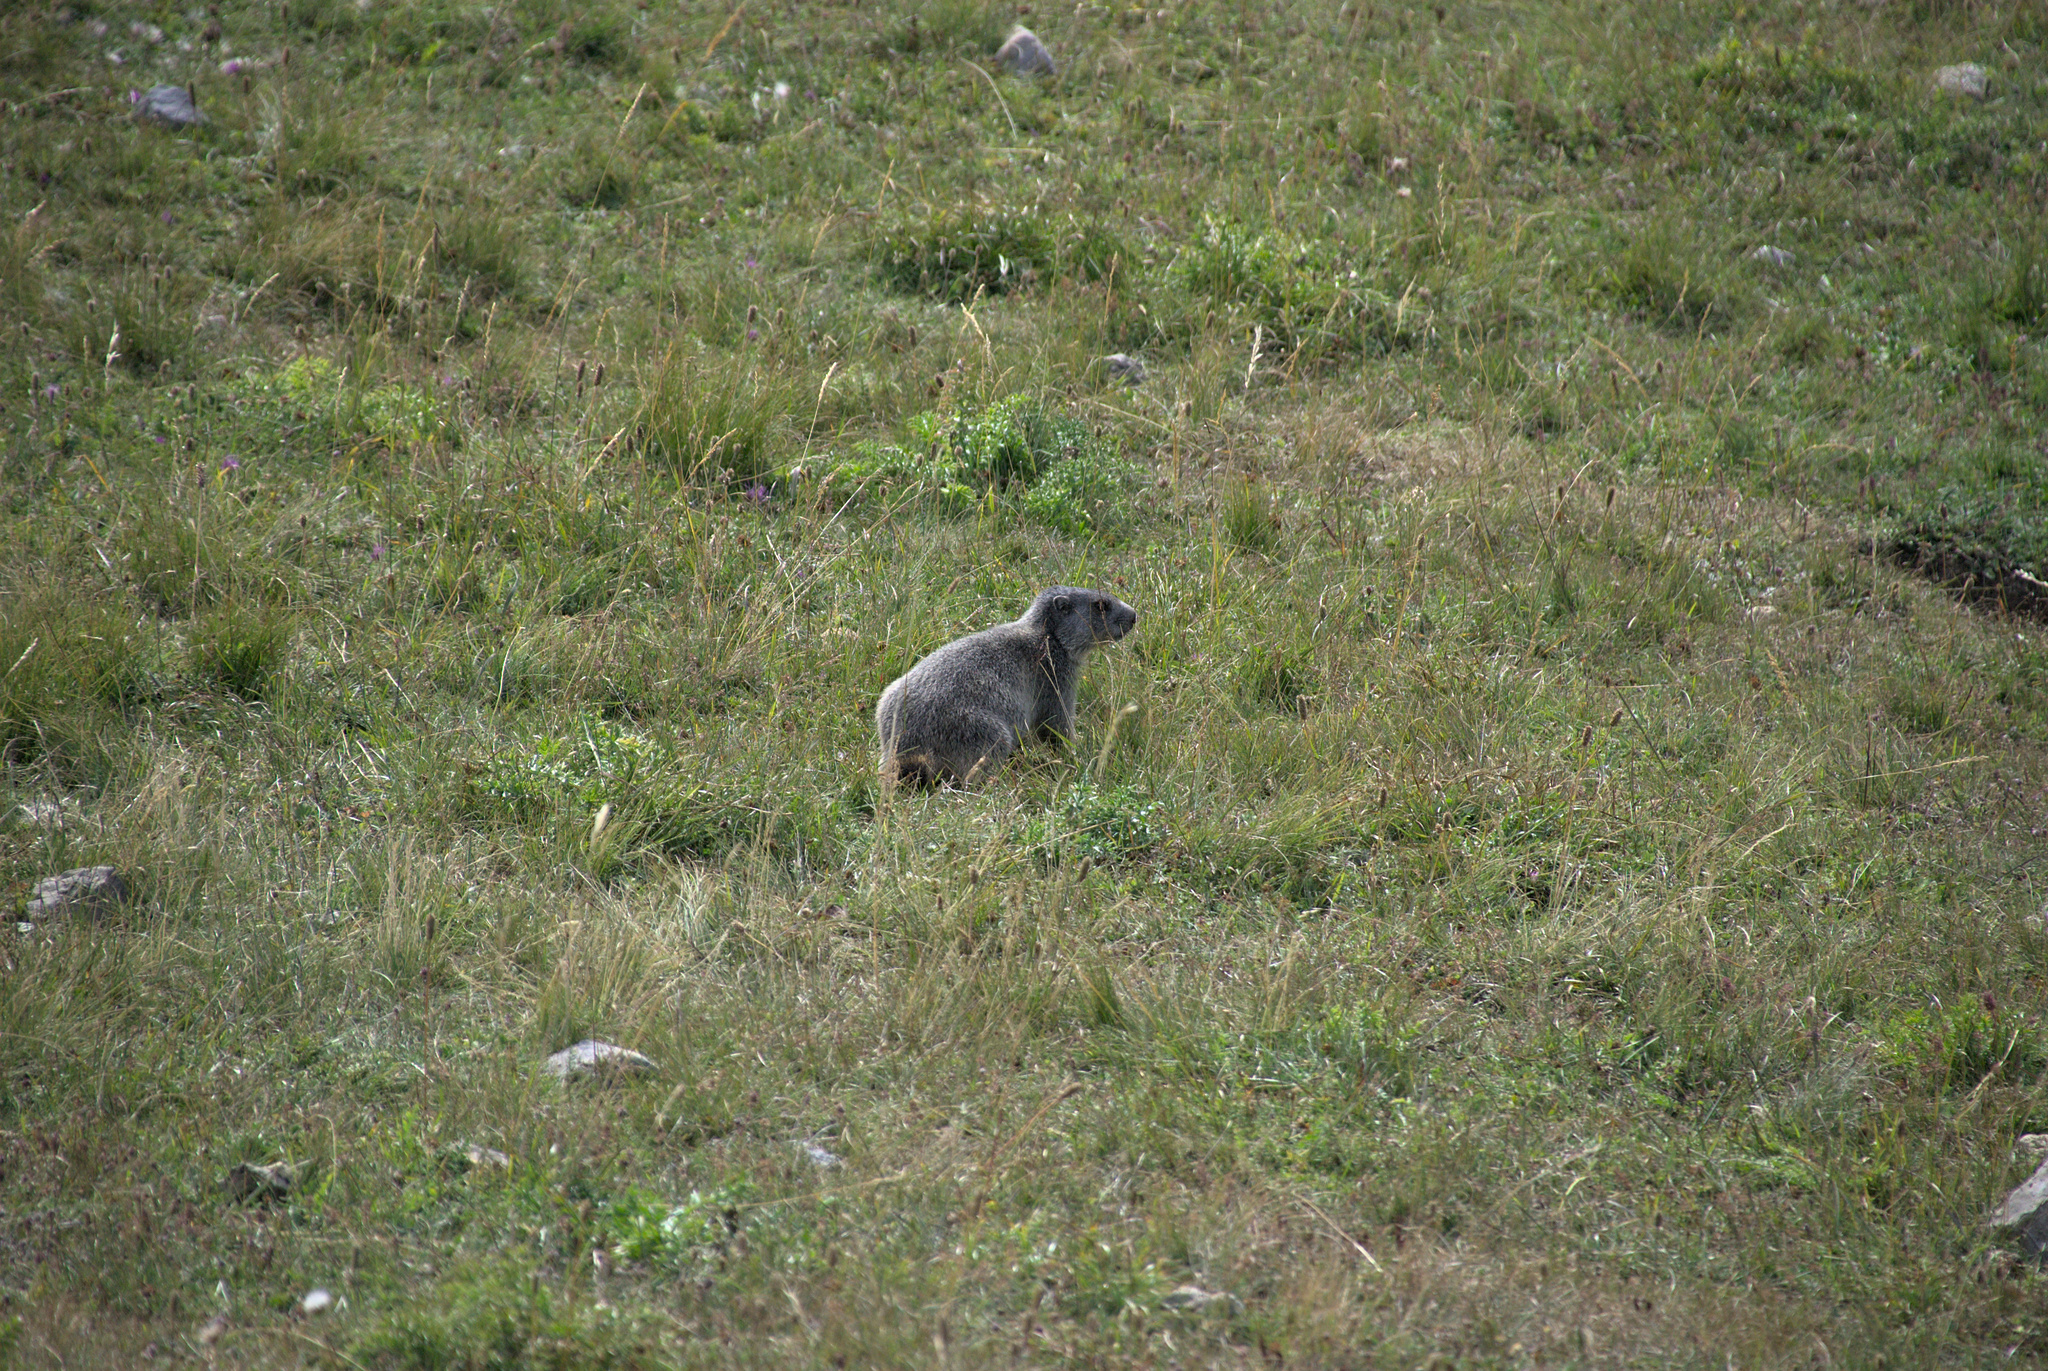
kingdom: Animalia
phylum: Chordata
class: Mammalia
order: Rodentia
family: Sciuridae
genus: Marmota
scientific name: Marmota marmota
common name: Alpine marmot
